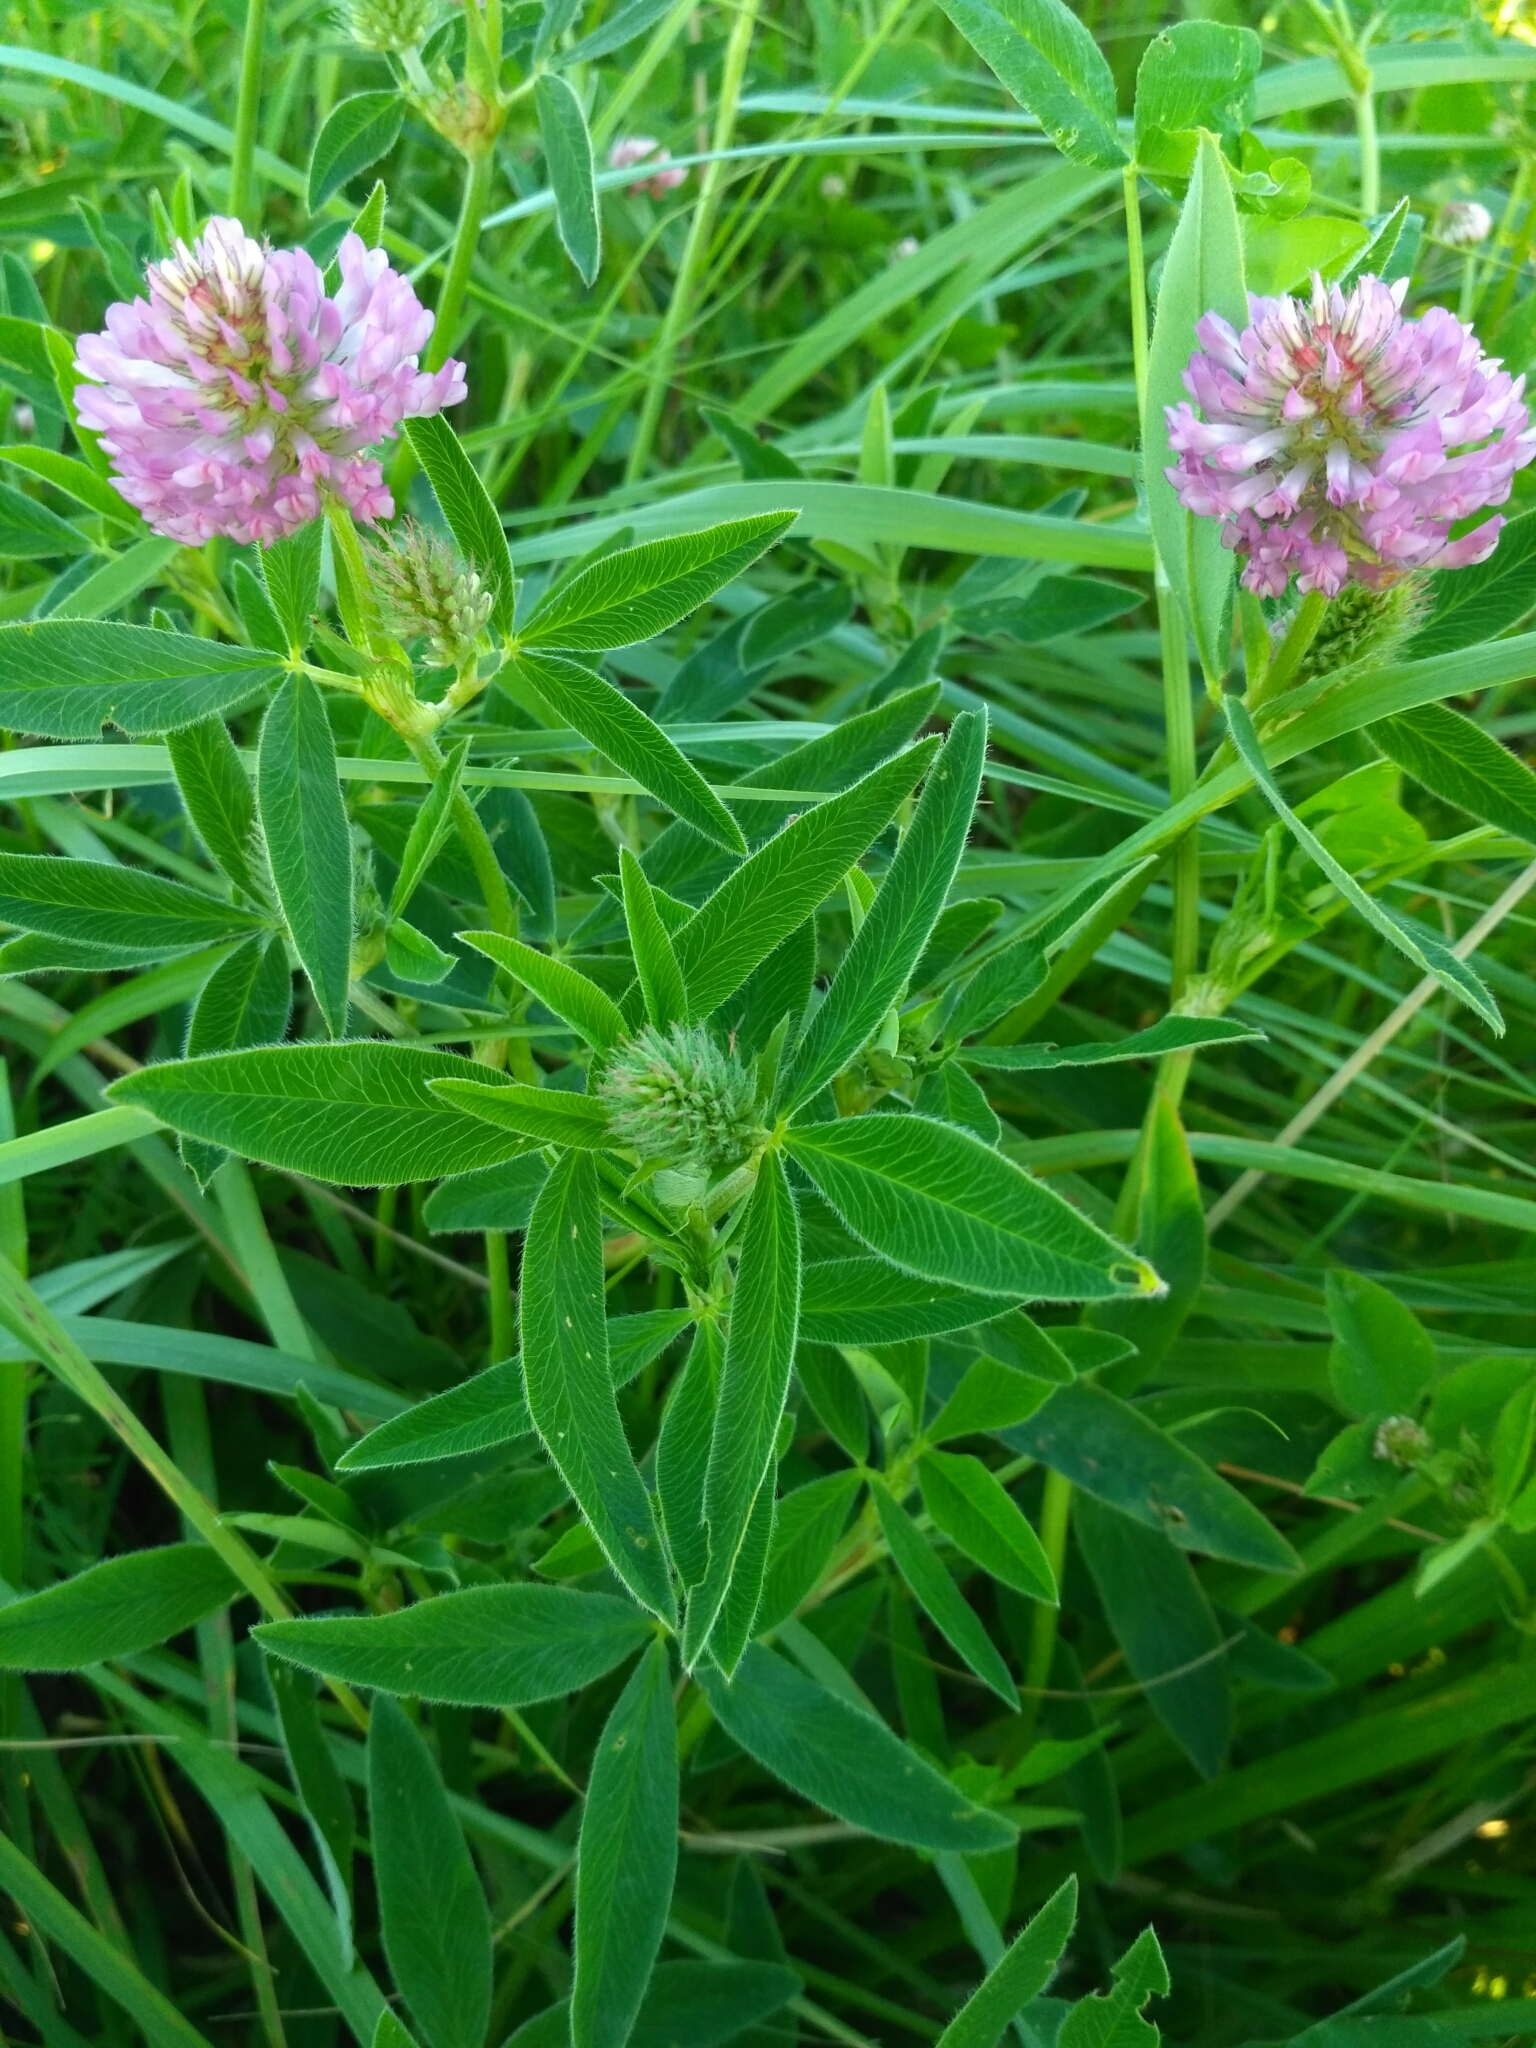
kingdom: Plantae
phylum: Tracheophyta
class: Magnoliopsida
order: Fabales
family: Fabaceae
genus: Trifolium
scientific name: Trifolium medium
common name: Zigzag clover
